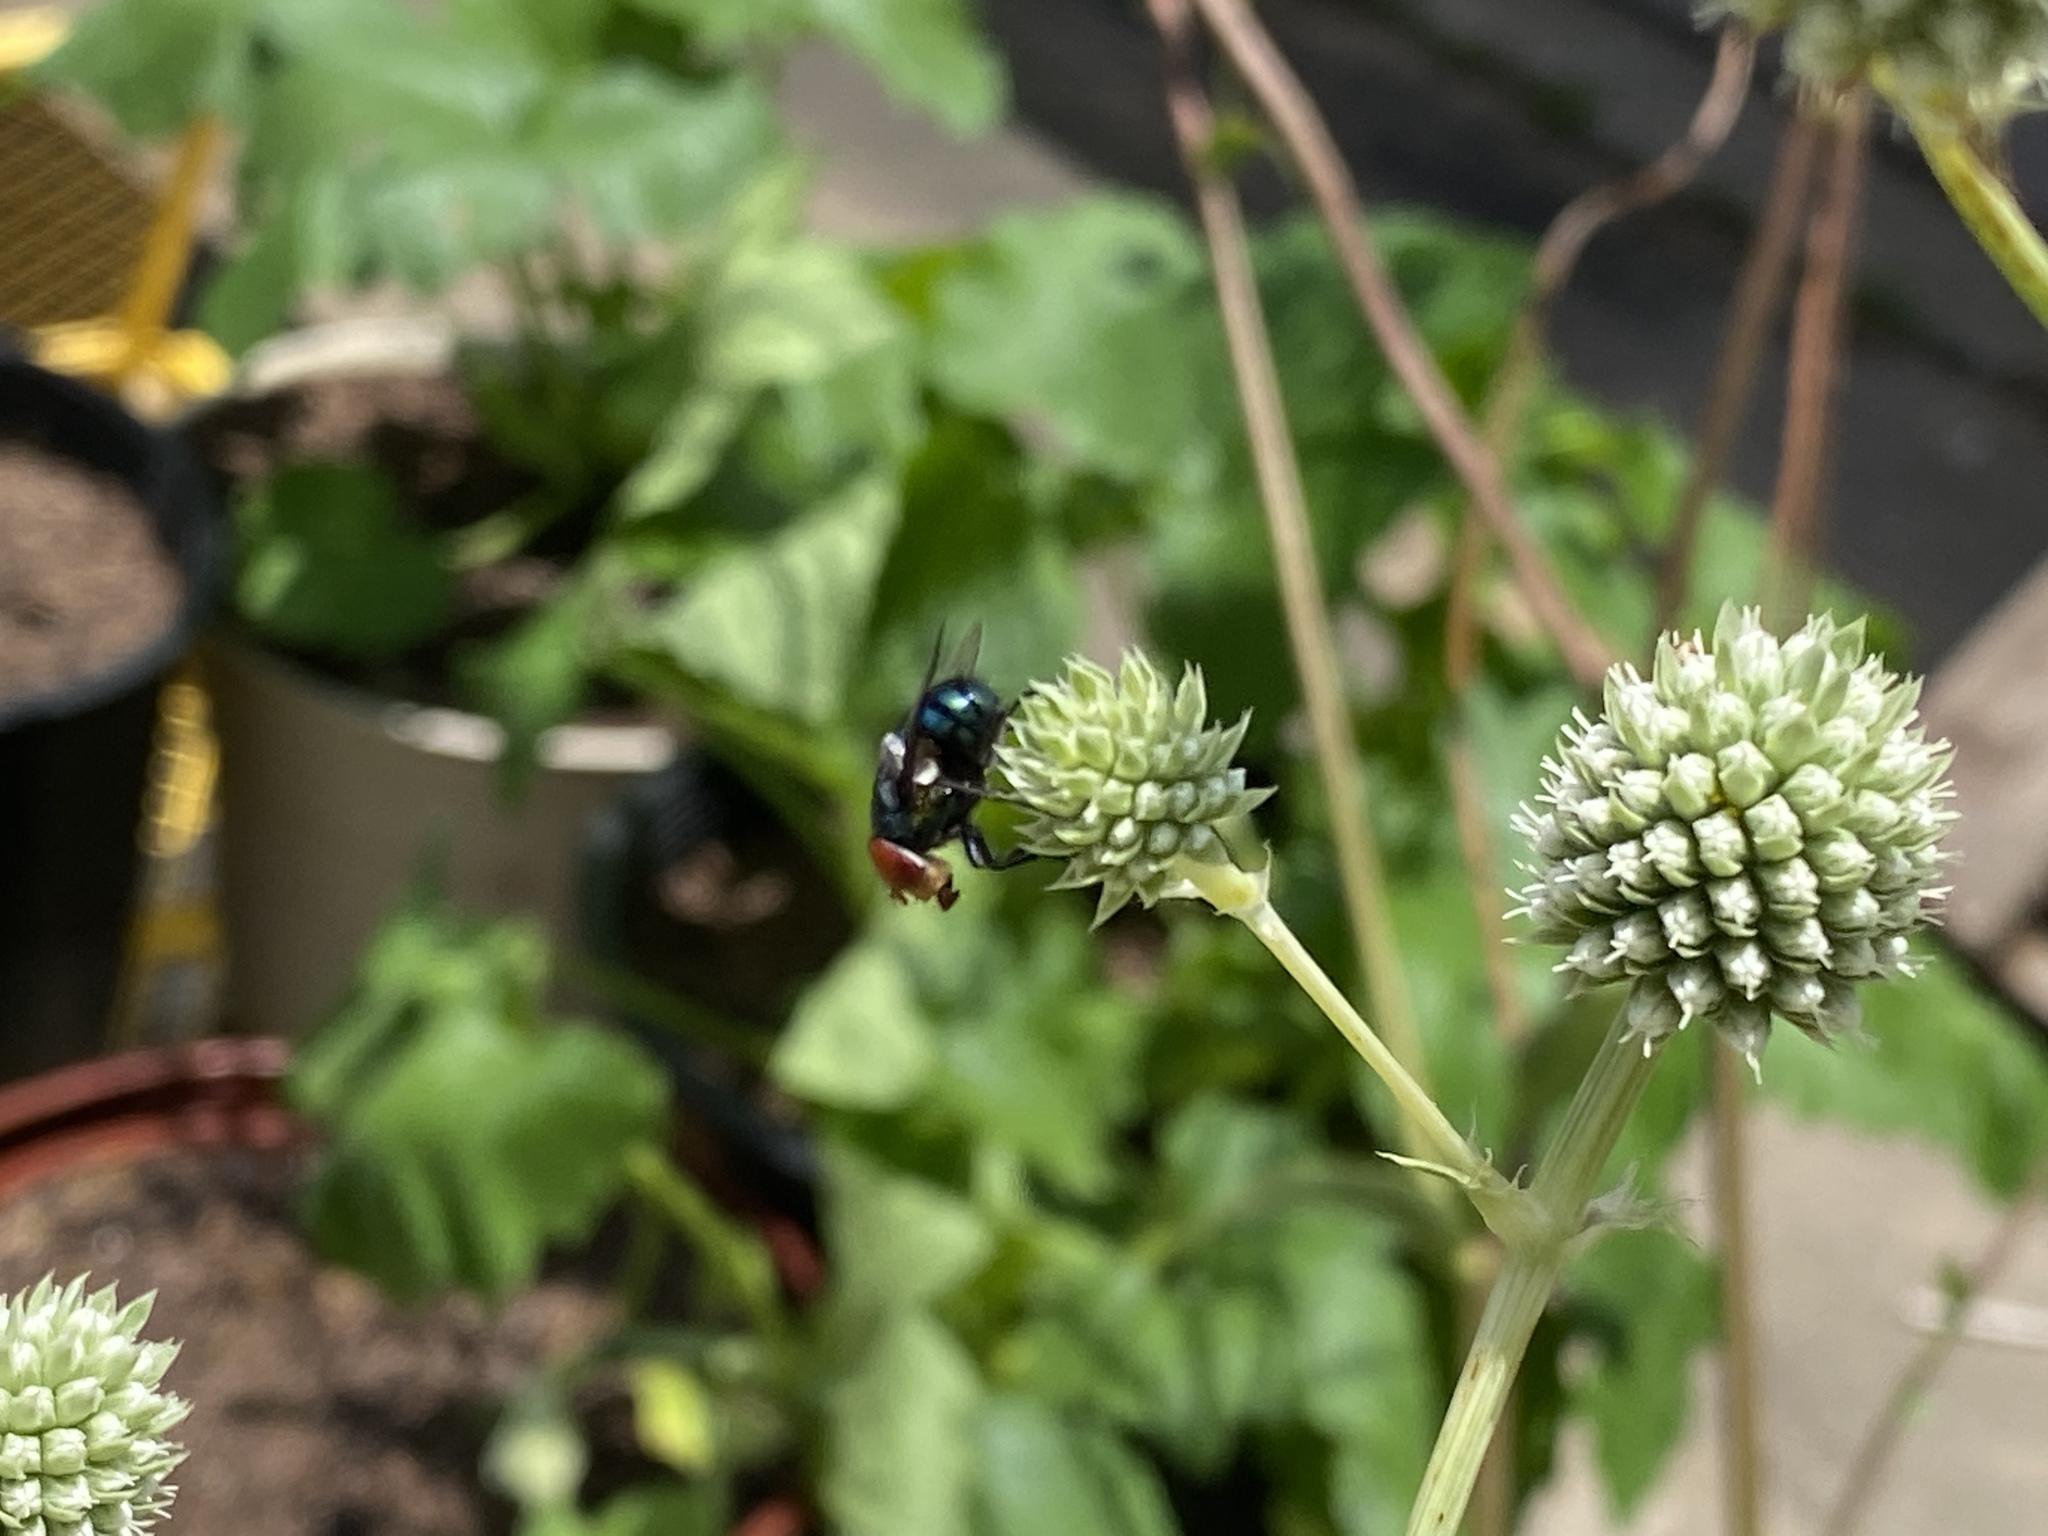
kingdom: Animalia
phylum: Arthropoda
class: Insecta
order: Diptera
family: Calliphoridae
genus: Chrysomya
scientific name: Chrysomya megacephala
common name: Blow fly
